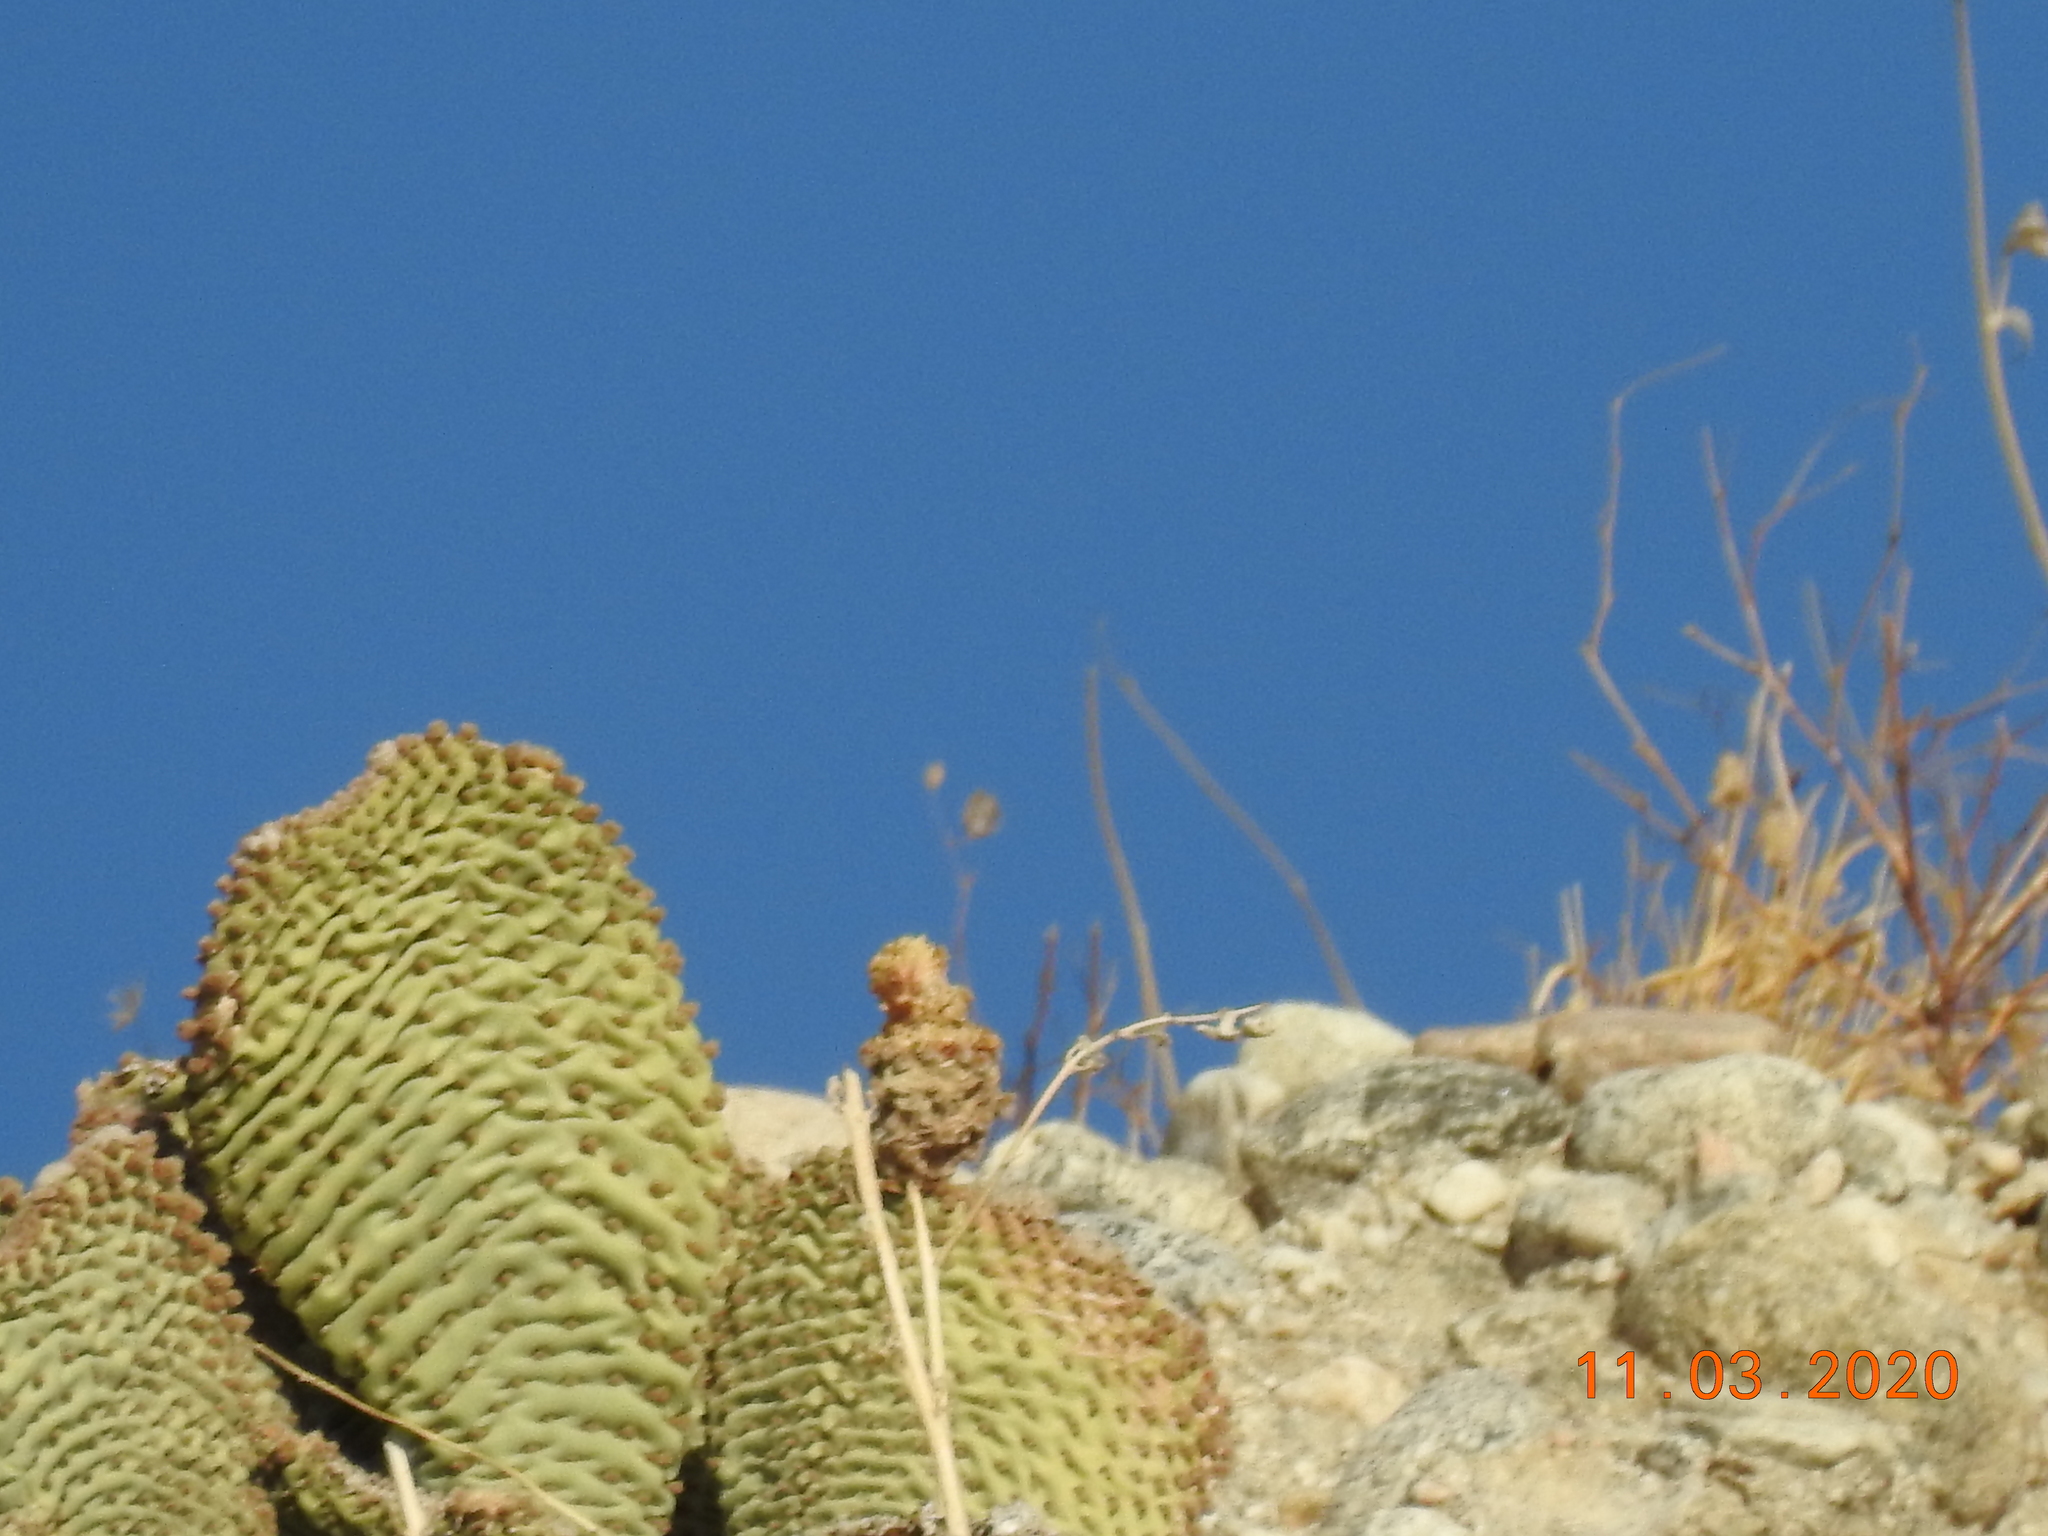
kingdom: Plantae
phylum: Tracheophyta
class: Magnoliopsida
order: Caryophyllales
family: Cactaceae
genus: Opuntia
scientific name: Opuntia basilaris
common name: Beavertail prickly-pear
